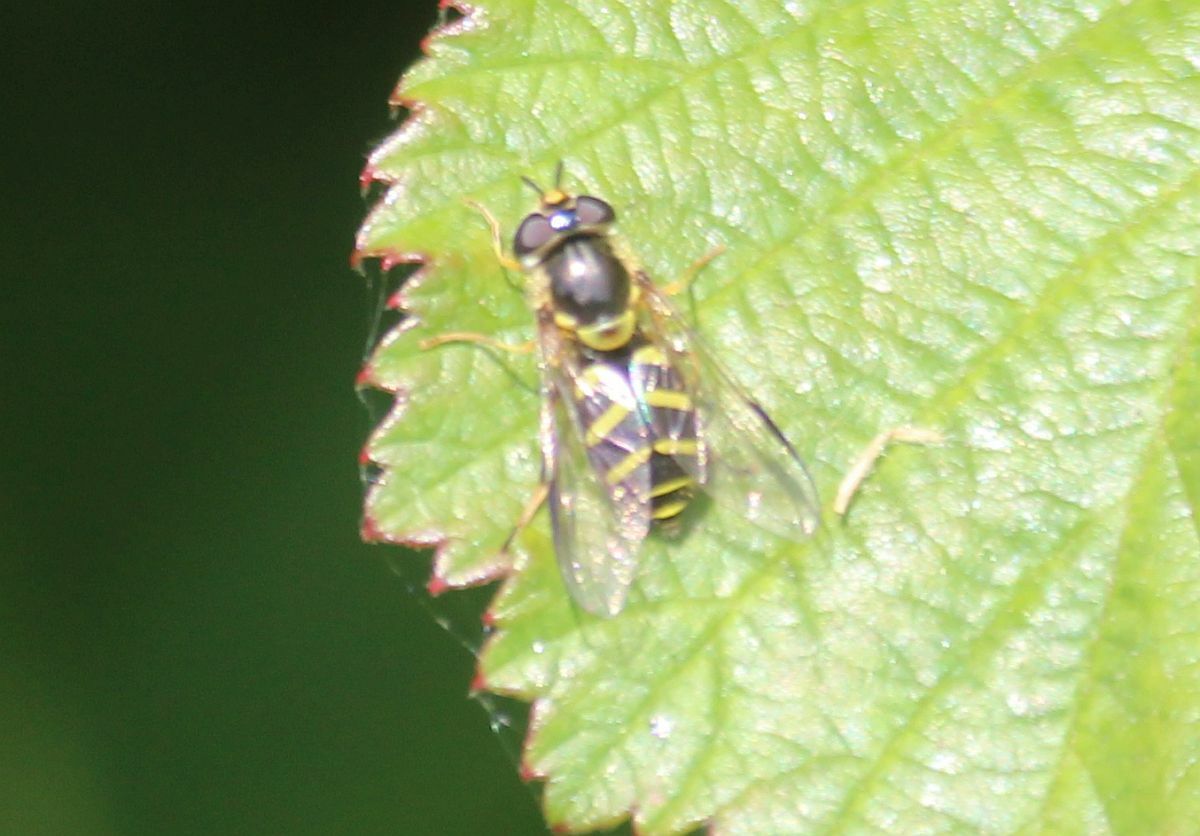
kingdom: Animalia
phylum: Arthropoda
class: Insecta
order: Diptera
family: Syrphidae
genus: Dasysyrphus
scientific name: Dasysyrphus albostriatus
